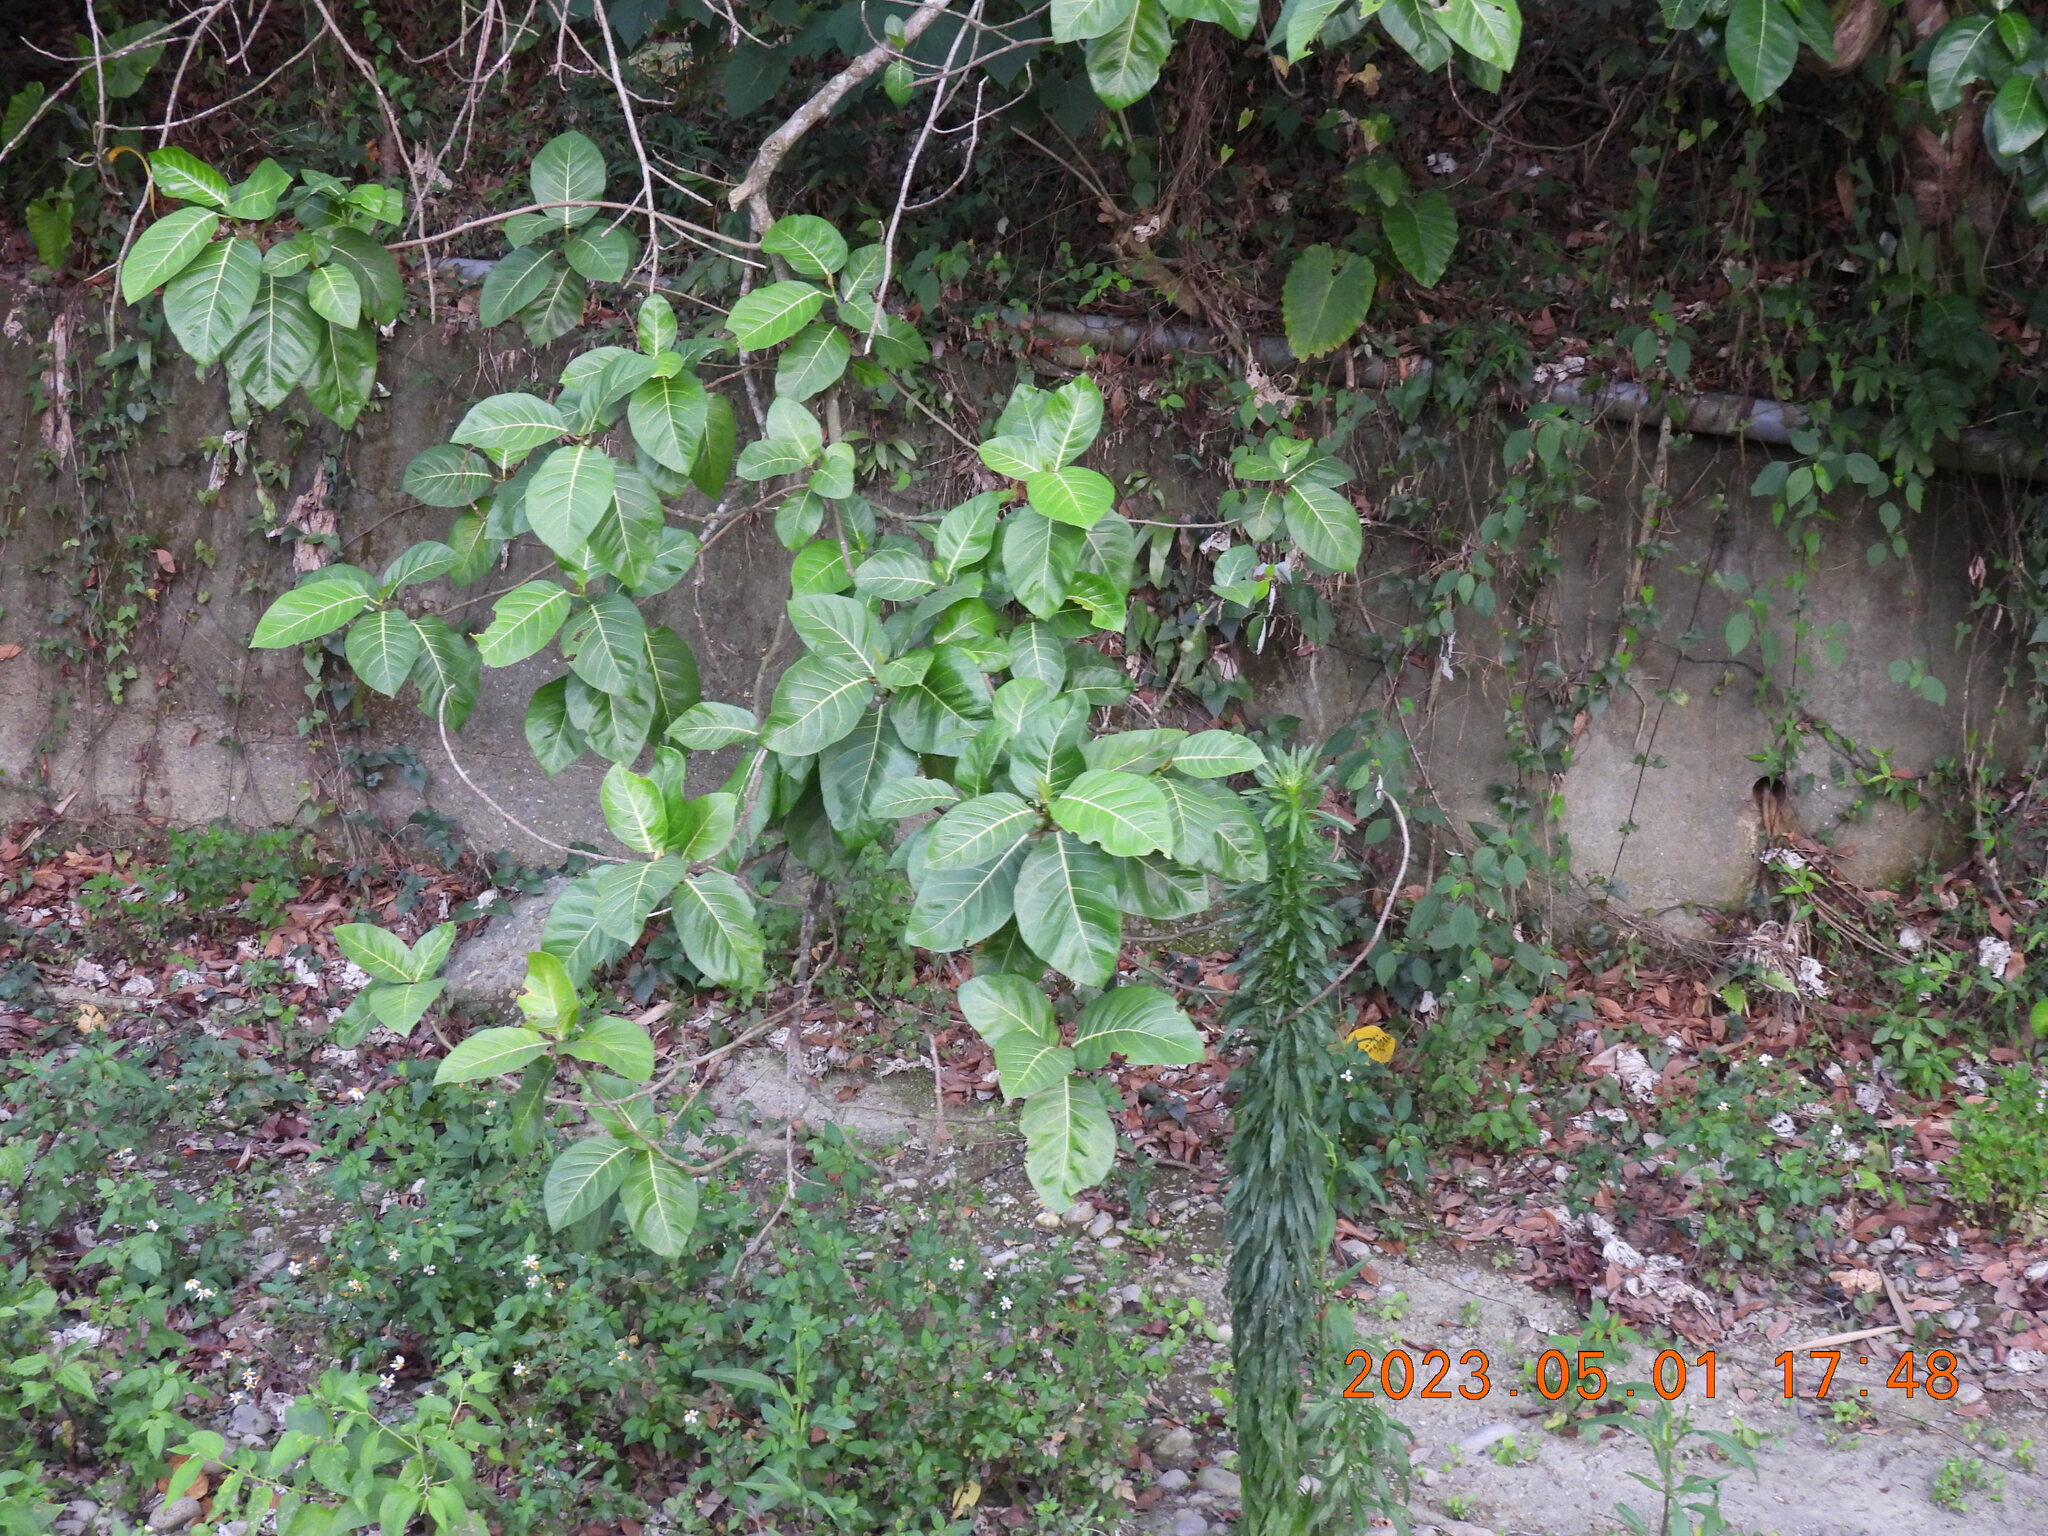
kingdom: Plantae
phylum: Tracheophyta
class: Magnoliopsida
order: Rosales
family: Moraceae
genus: Ficus
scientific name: Ficus septica
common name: Septic fig
